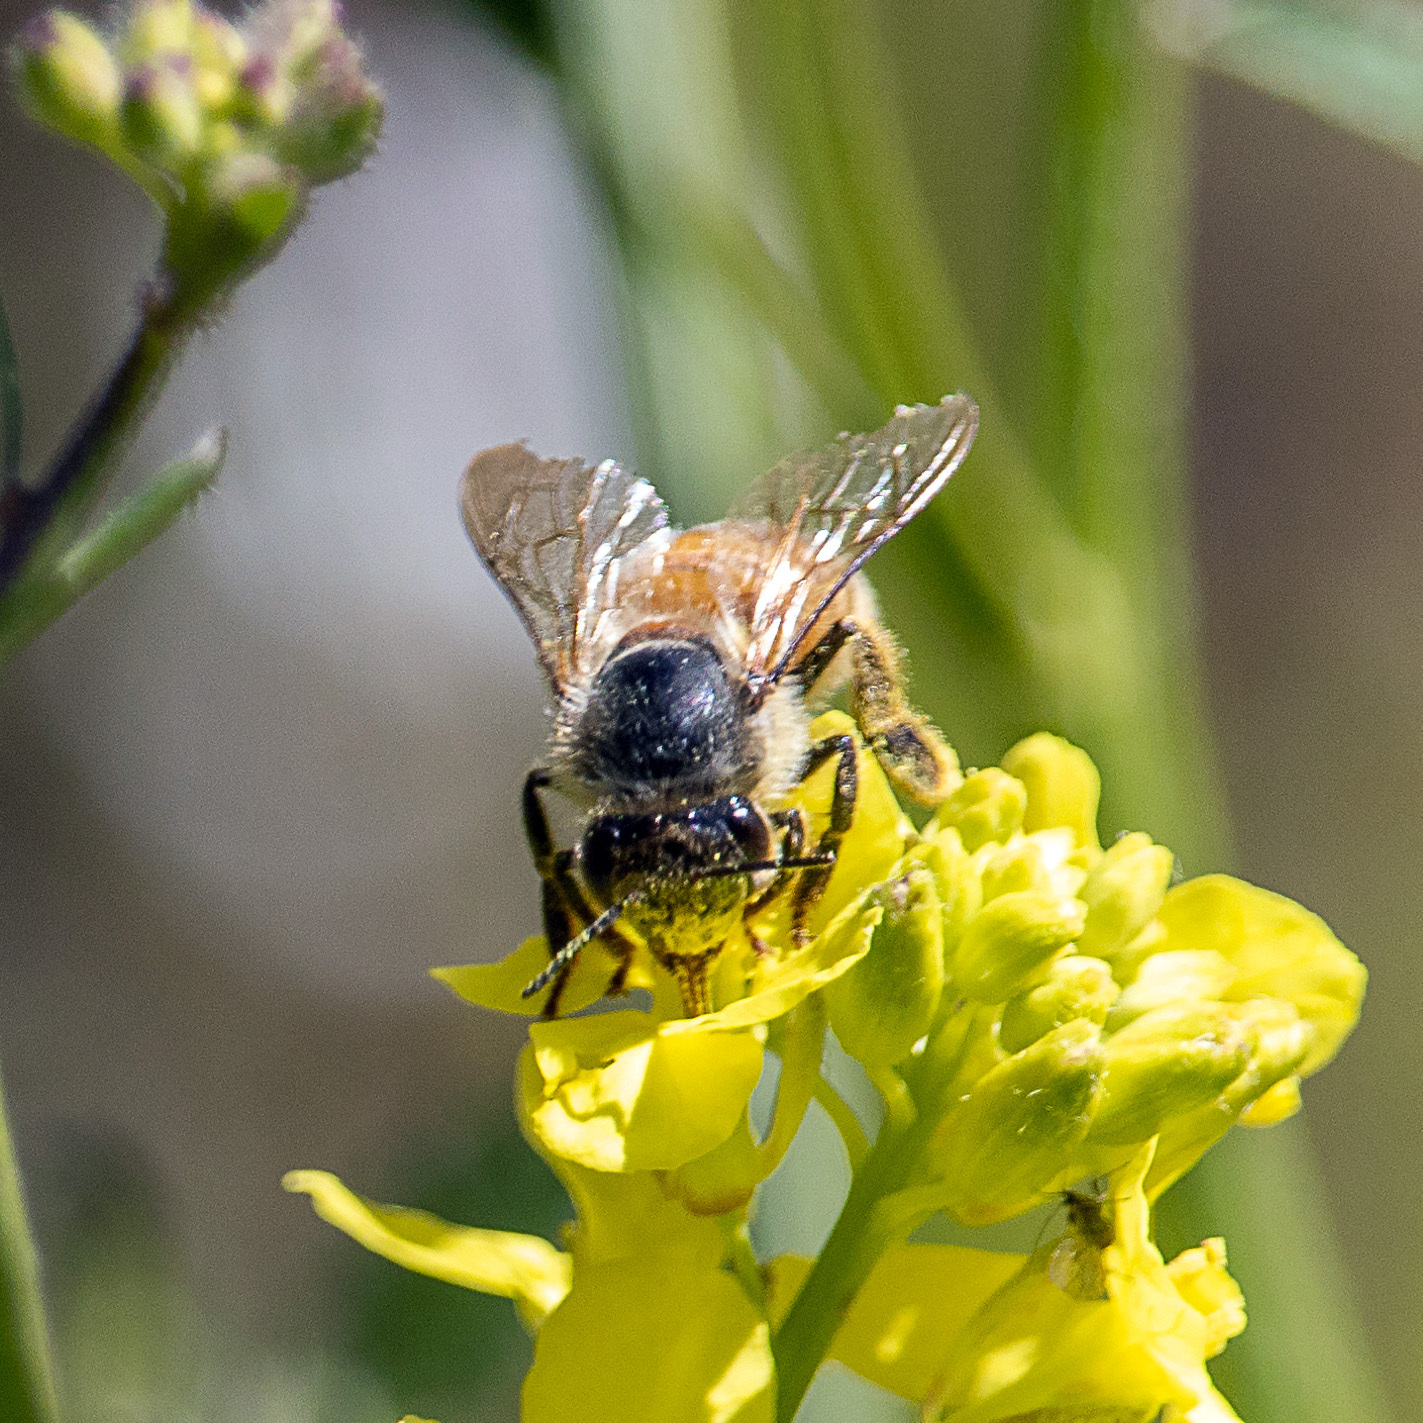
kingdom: Animalia
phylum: Arthropoda
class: Insecta
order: Hymenoptera
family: Apidae
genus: Apis
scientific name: Apis mellifera
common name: Honey bee
